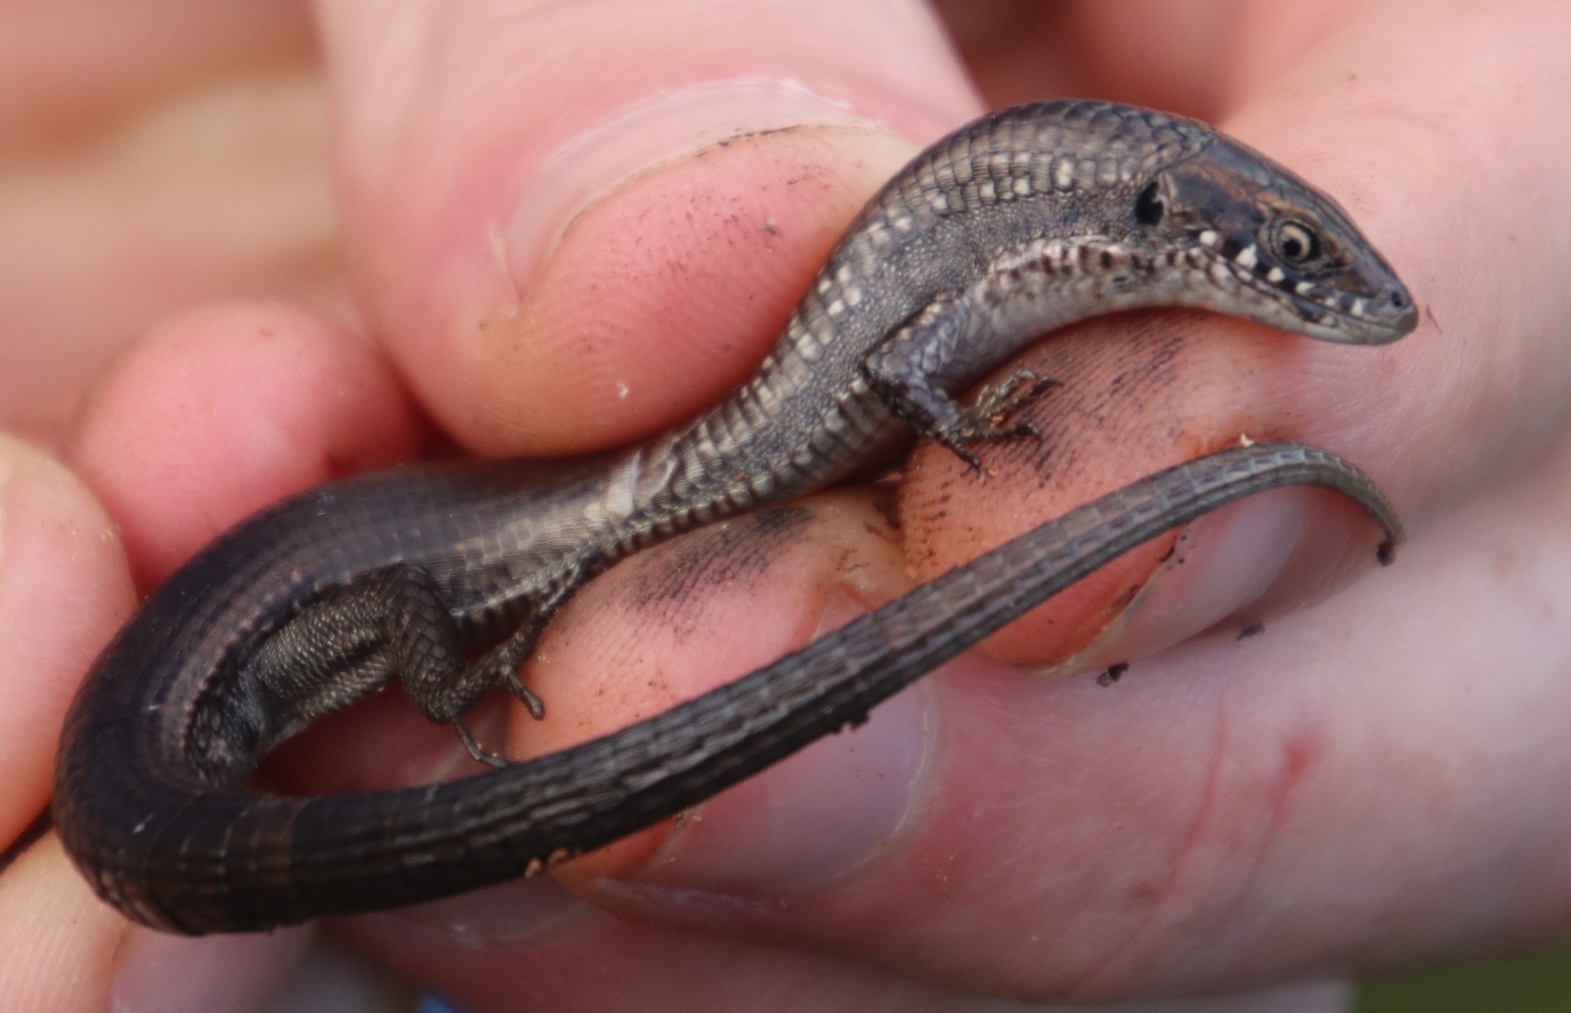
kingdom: Animalia
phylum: Chordata
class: Squamata
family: Gerrhosauridae
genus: Tetradactylus
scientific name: Tetradactylus seps
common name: Five-toed whip lizard
